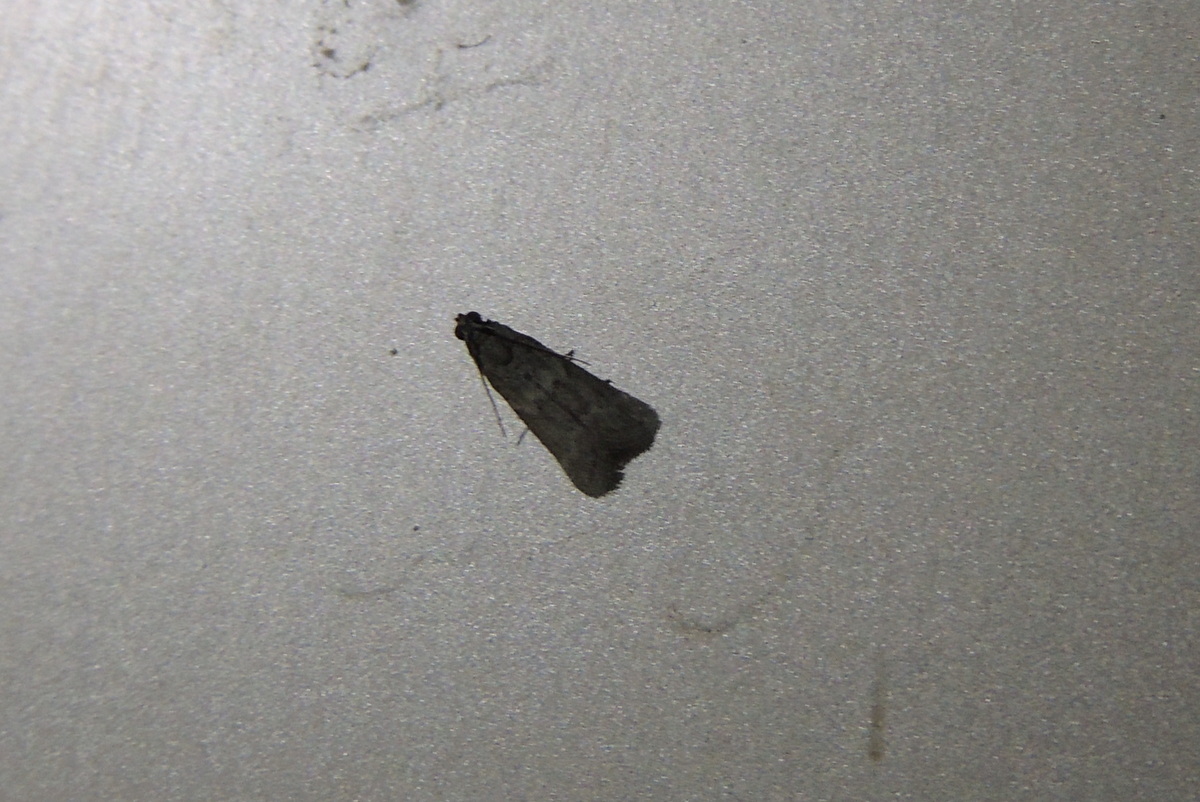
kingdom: Animalia
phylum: Arthropoda
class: Insecta
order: Lepidoptera
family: Pyralidae
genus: Ectomyelois
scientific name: Ectomyelois ceratoniae
